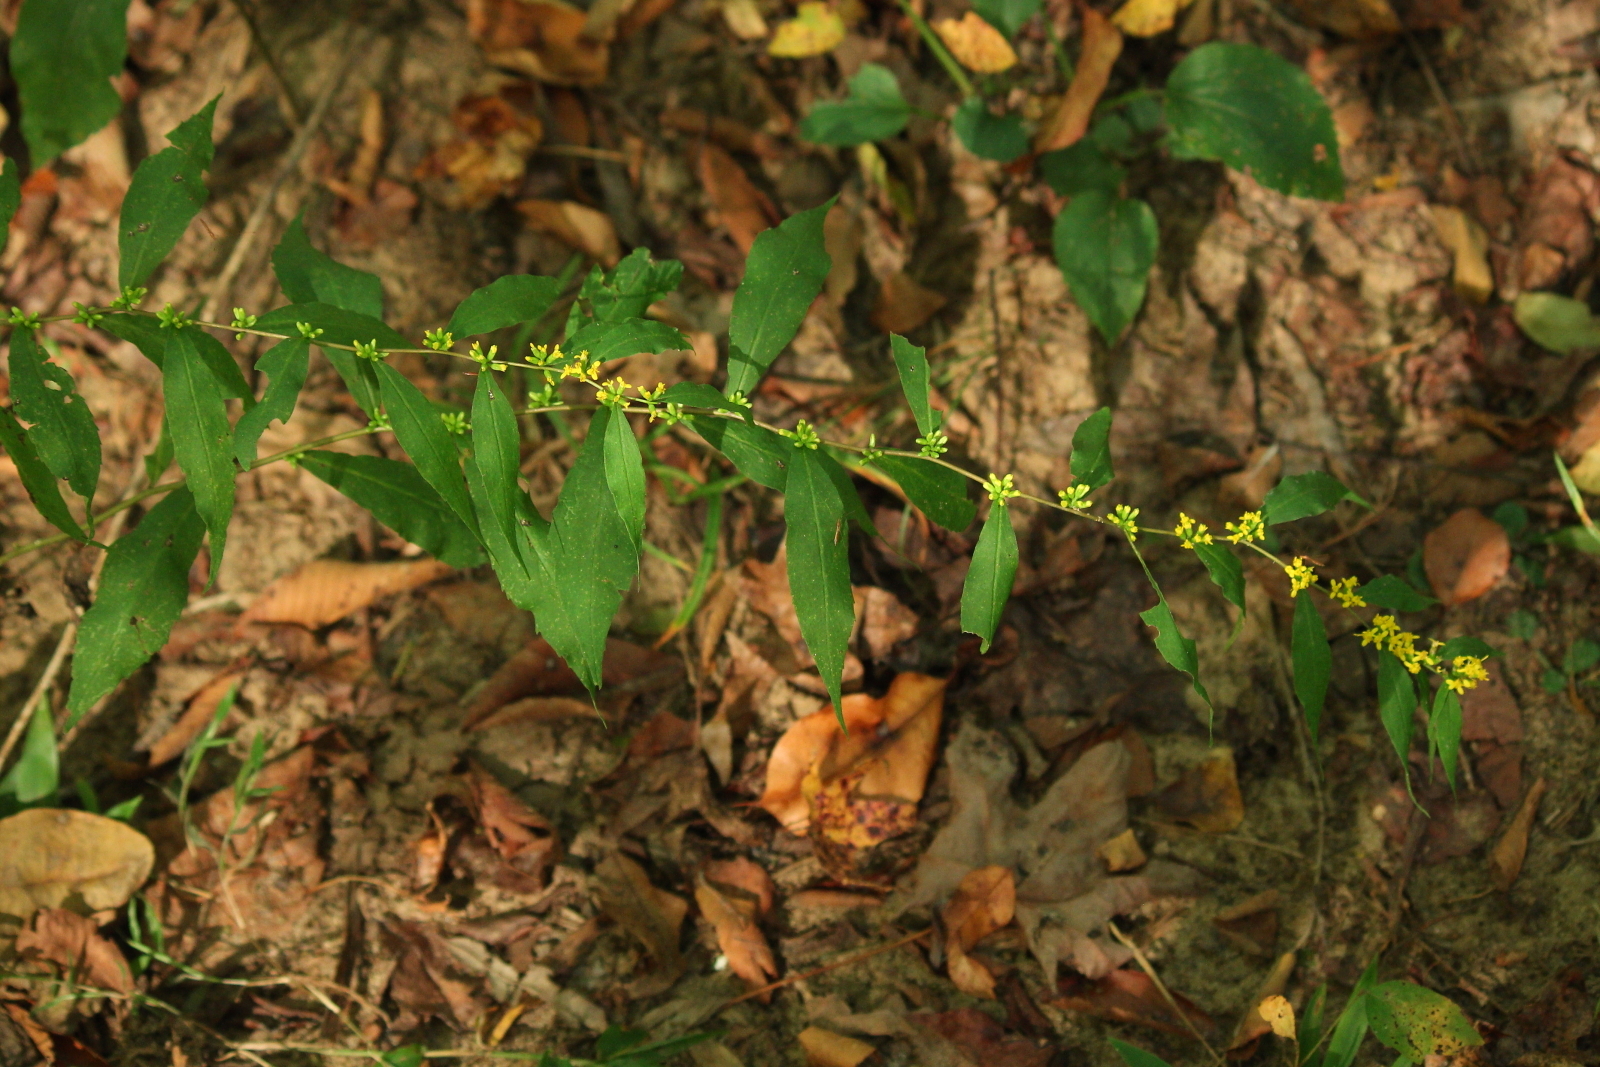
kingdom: Plantae
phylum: Tracheophyta
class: Magnoliopsida
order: Asterales
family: Asteraceae
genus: Solidago
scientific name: Solidago caesia
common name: Woodland goldenrod
